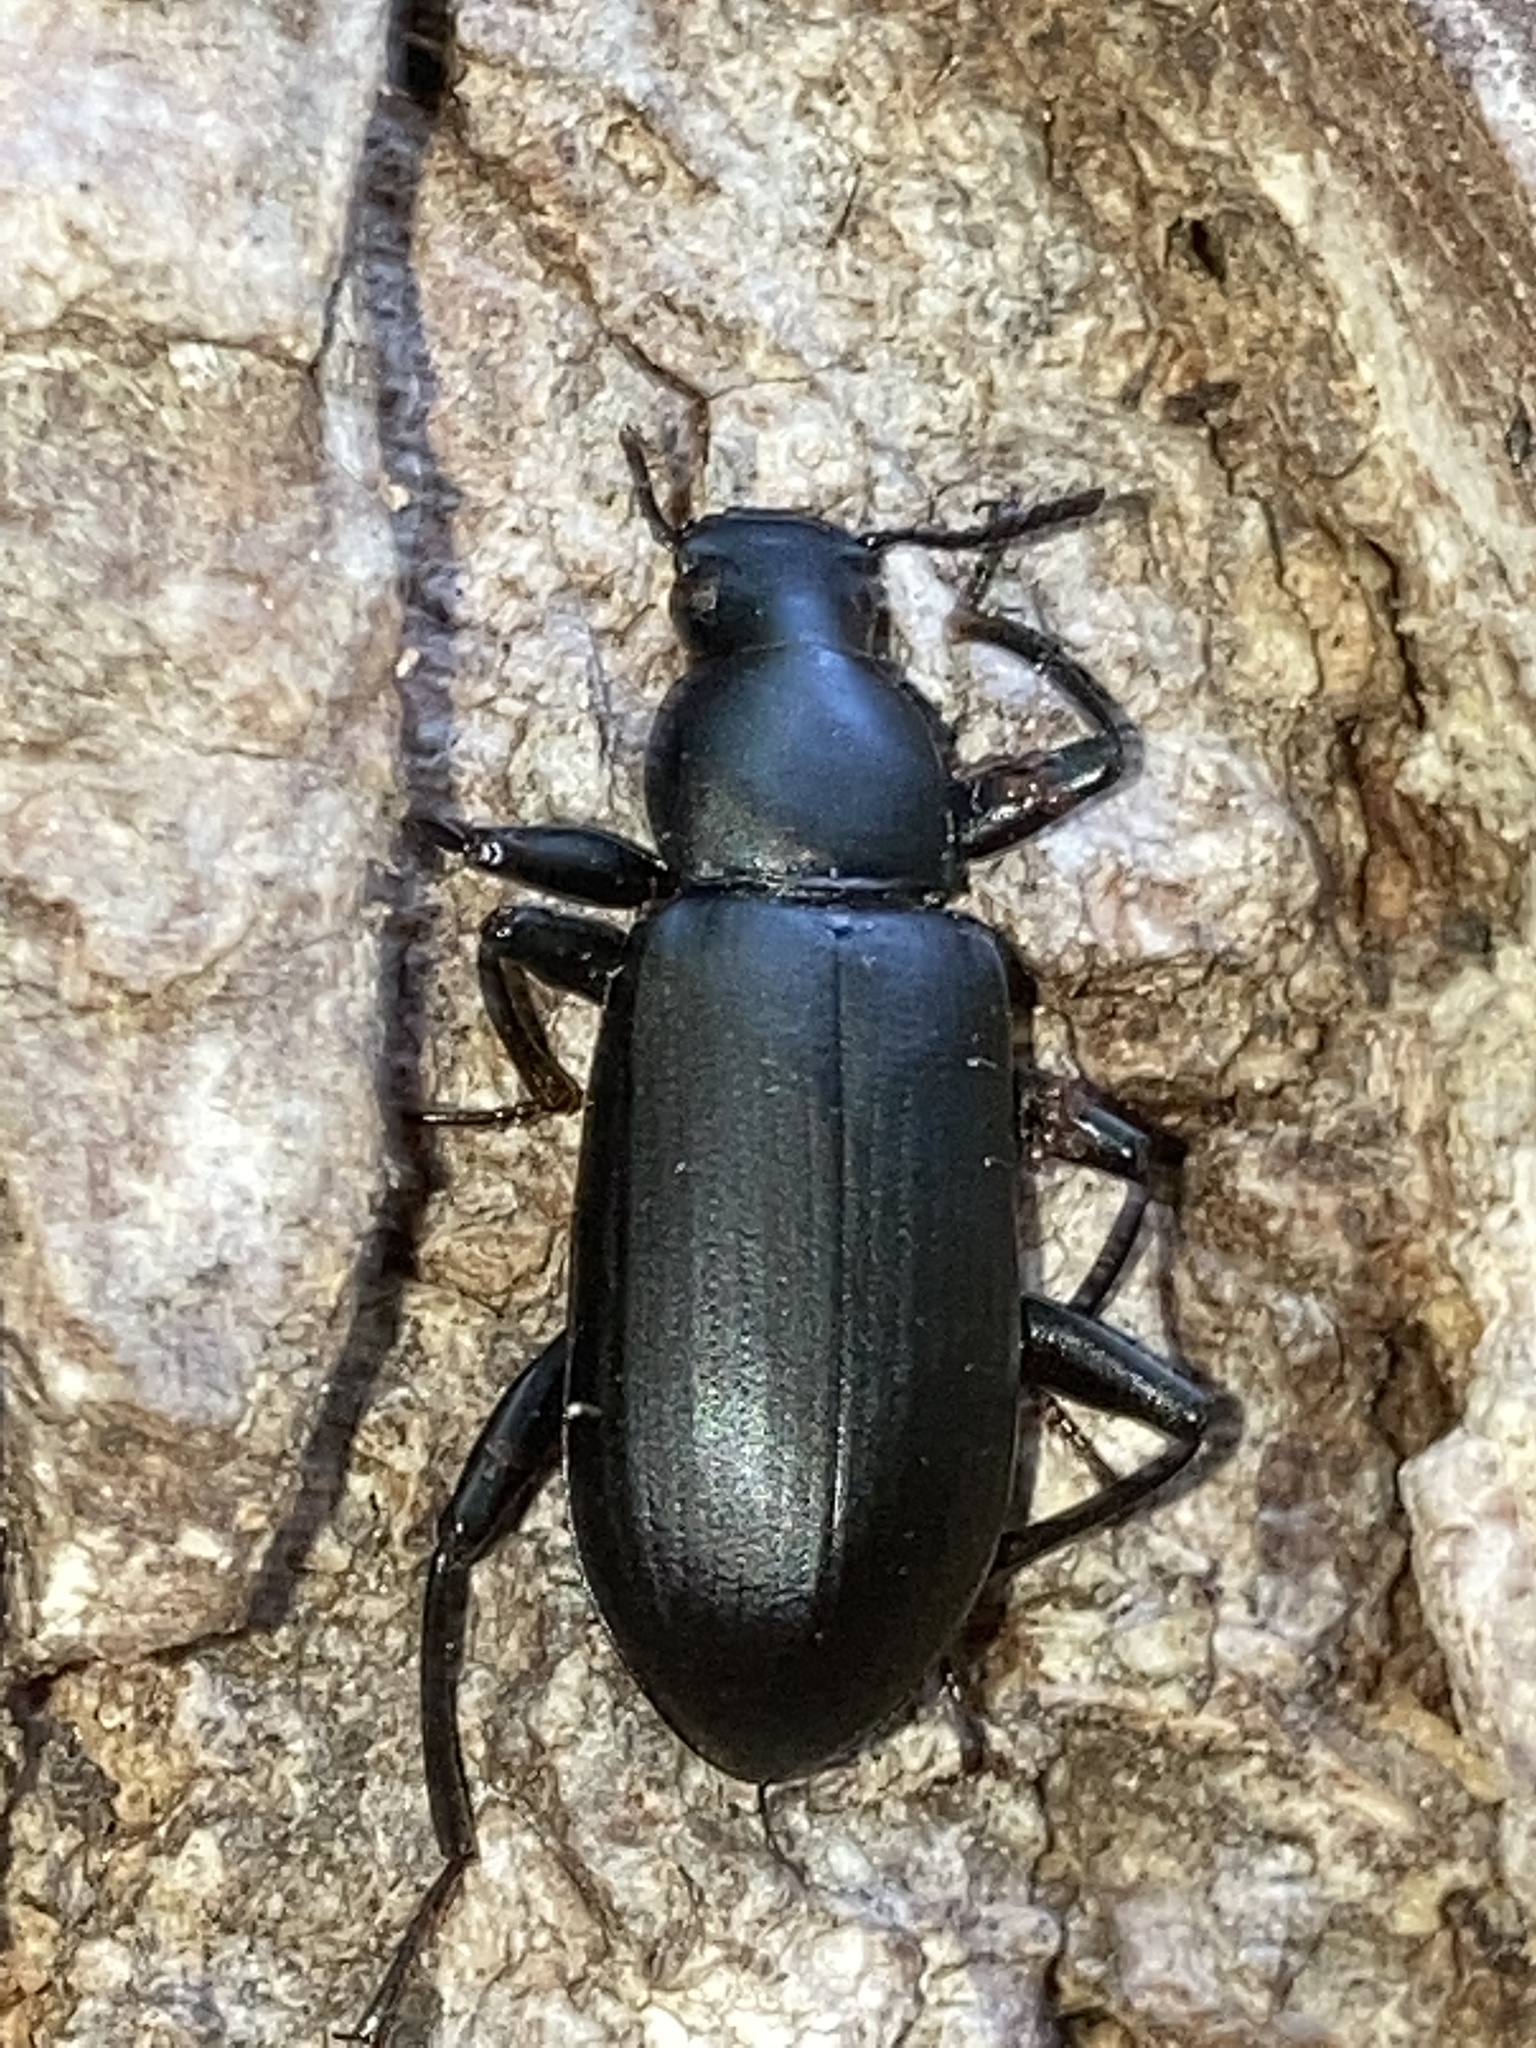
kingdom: Animalia
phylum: Arthropoda
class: Insecta
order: Coleoptera
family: Tenebrionidae
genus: Alobates
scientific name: Alobates pensylvanicus
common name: False mealworm beetle
